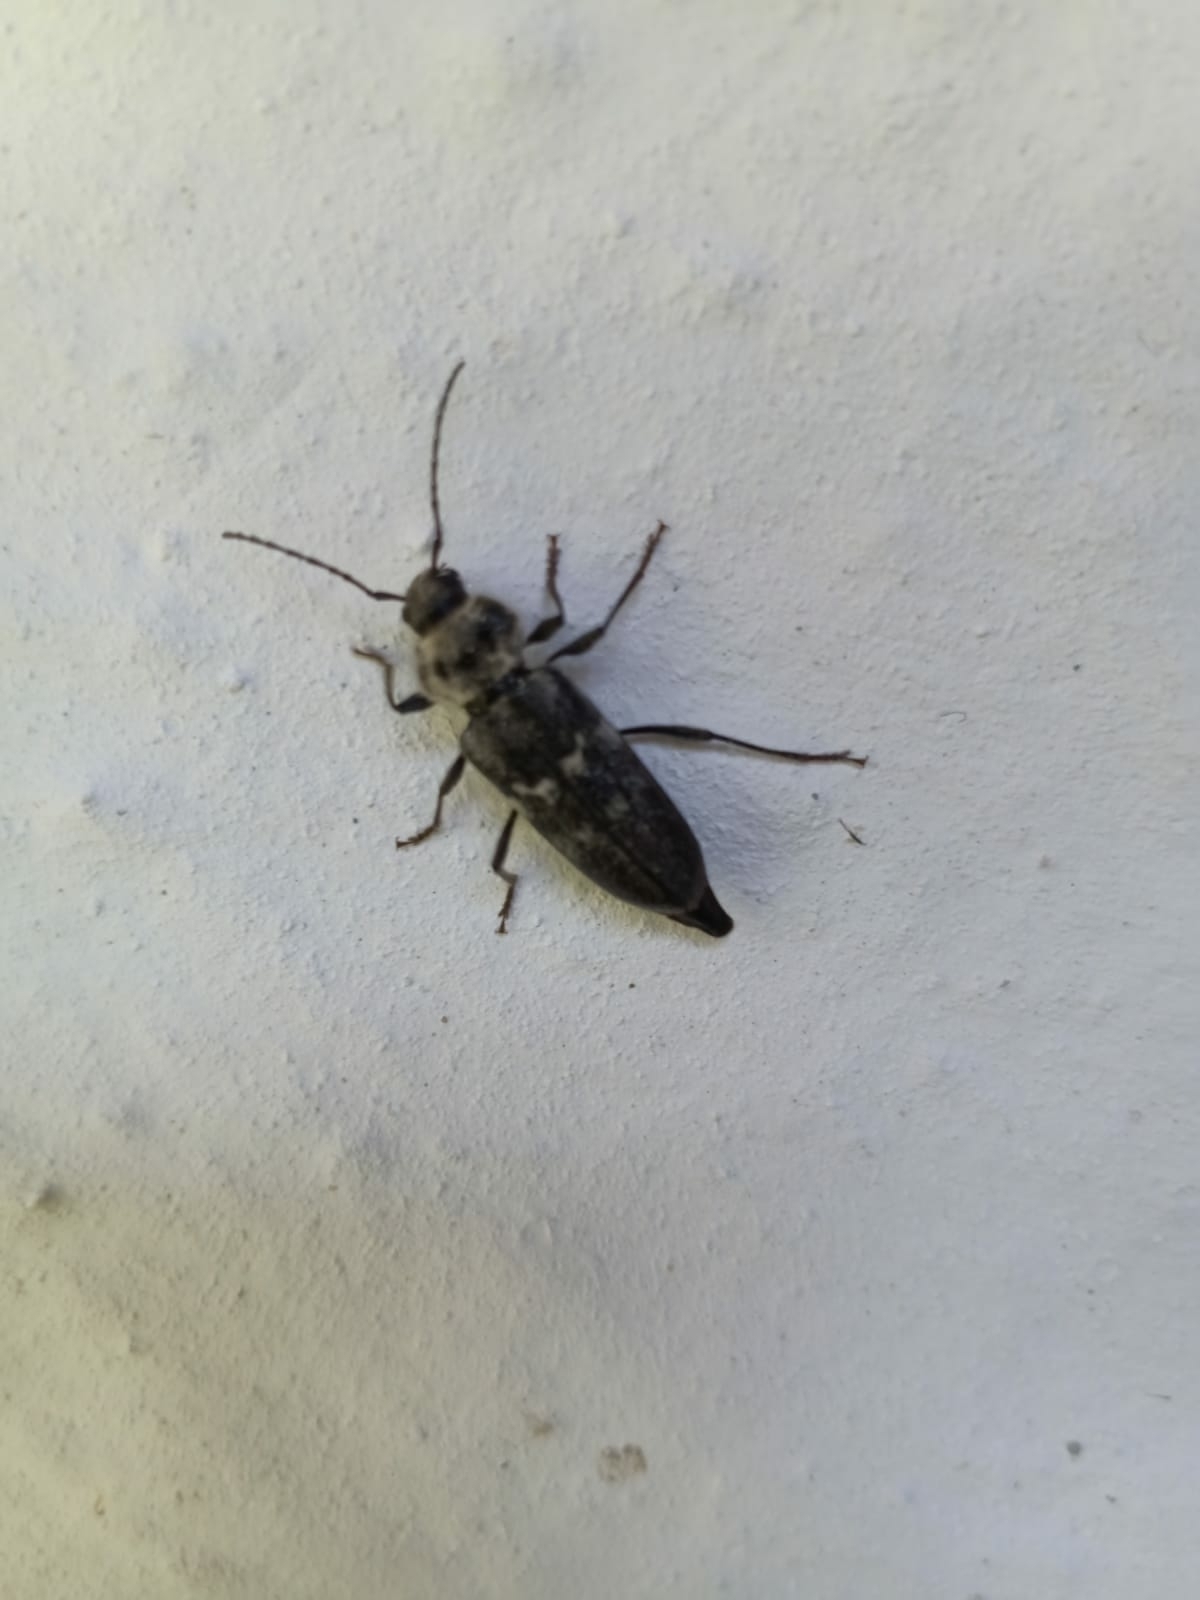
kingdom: Animalia
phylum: Arthropoda
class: Insecta
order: Coleoptera
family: Cerambycidae
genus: Hylotrupes
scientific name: Hylotrupes bajulus
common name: Old house borer
